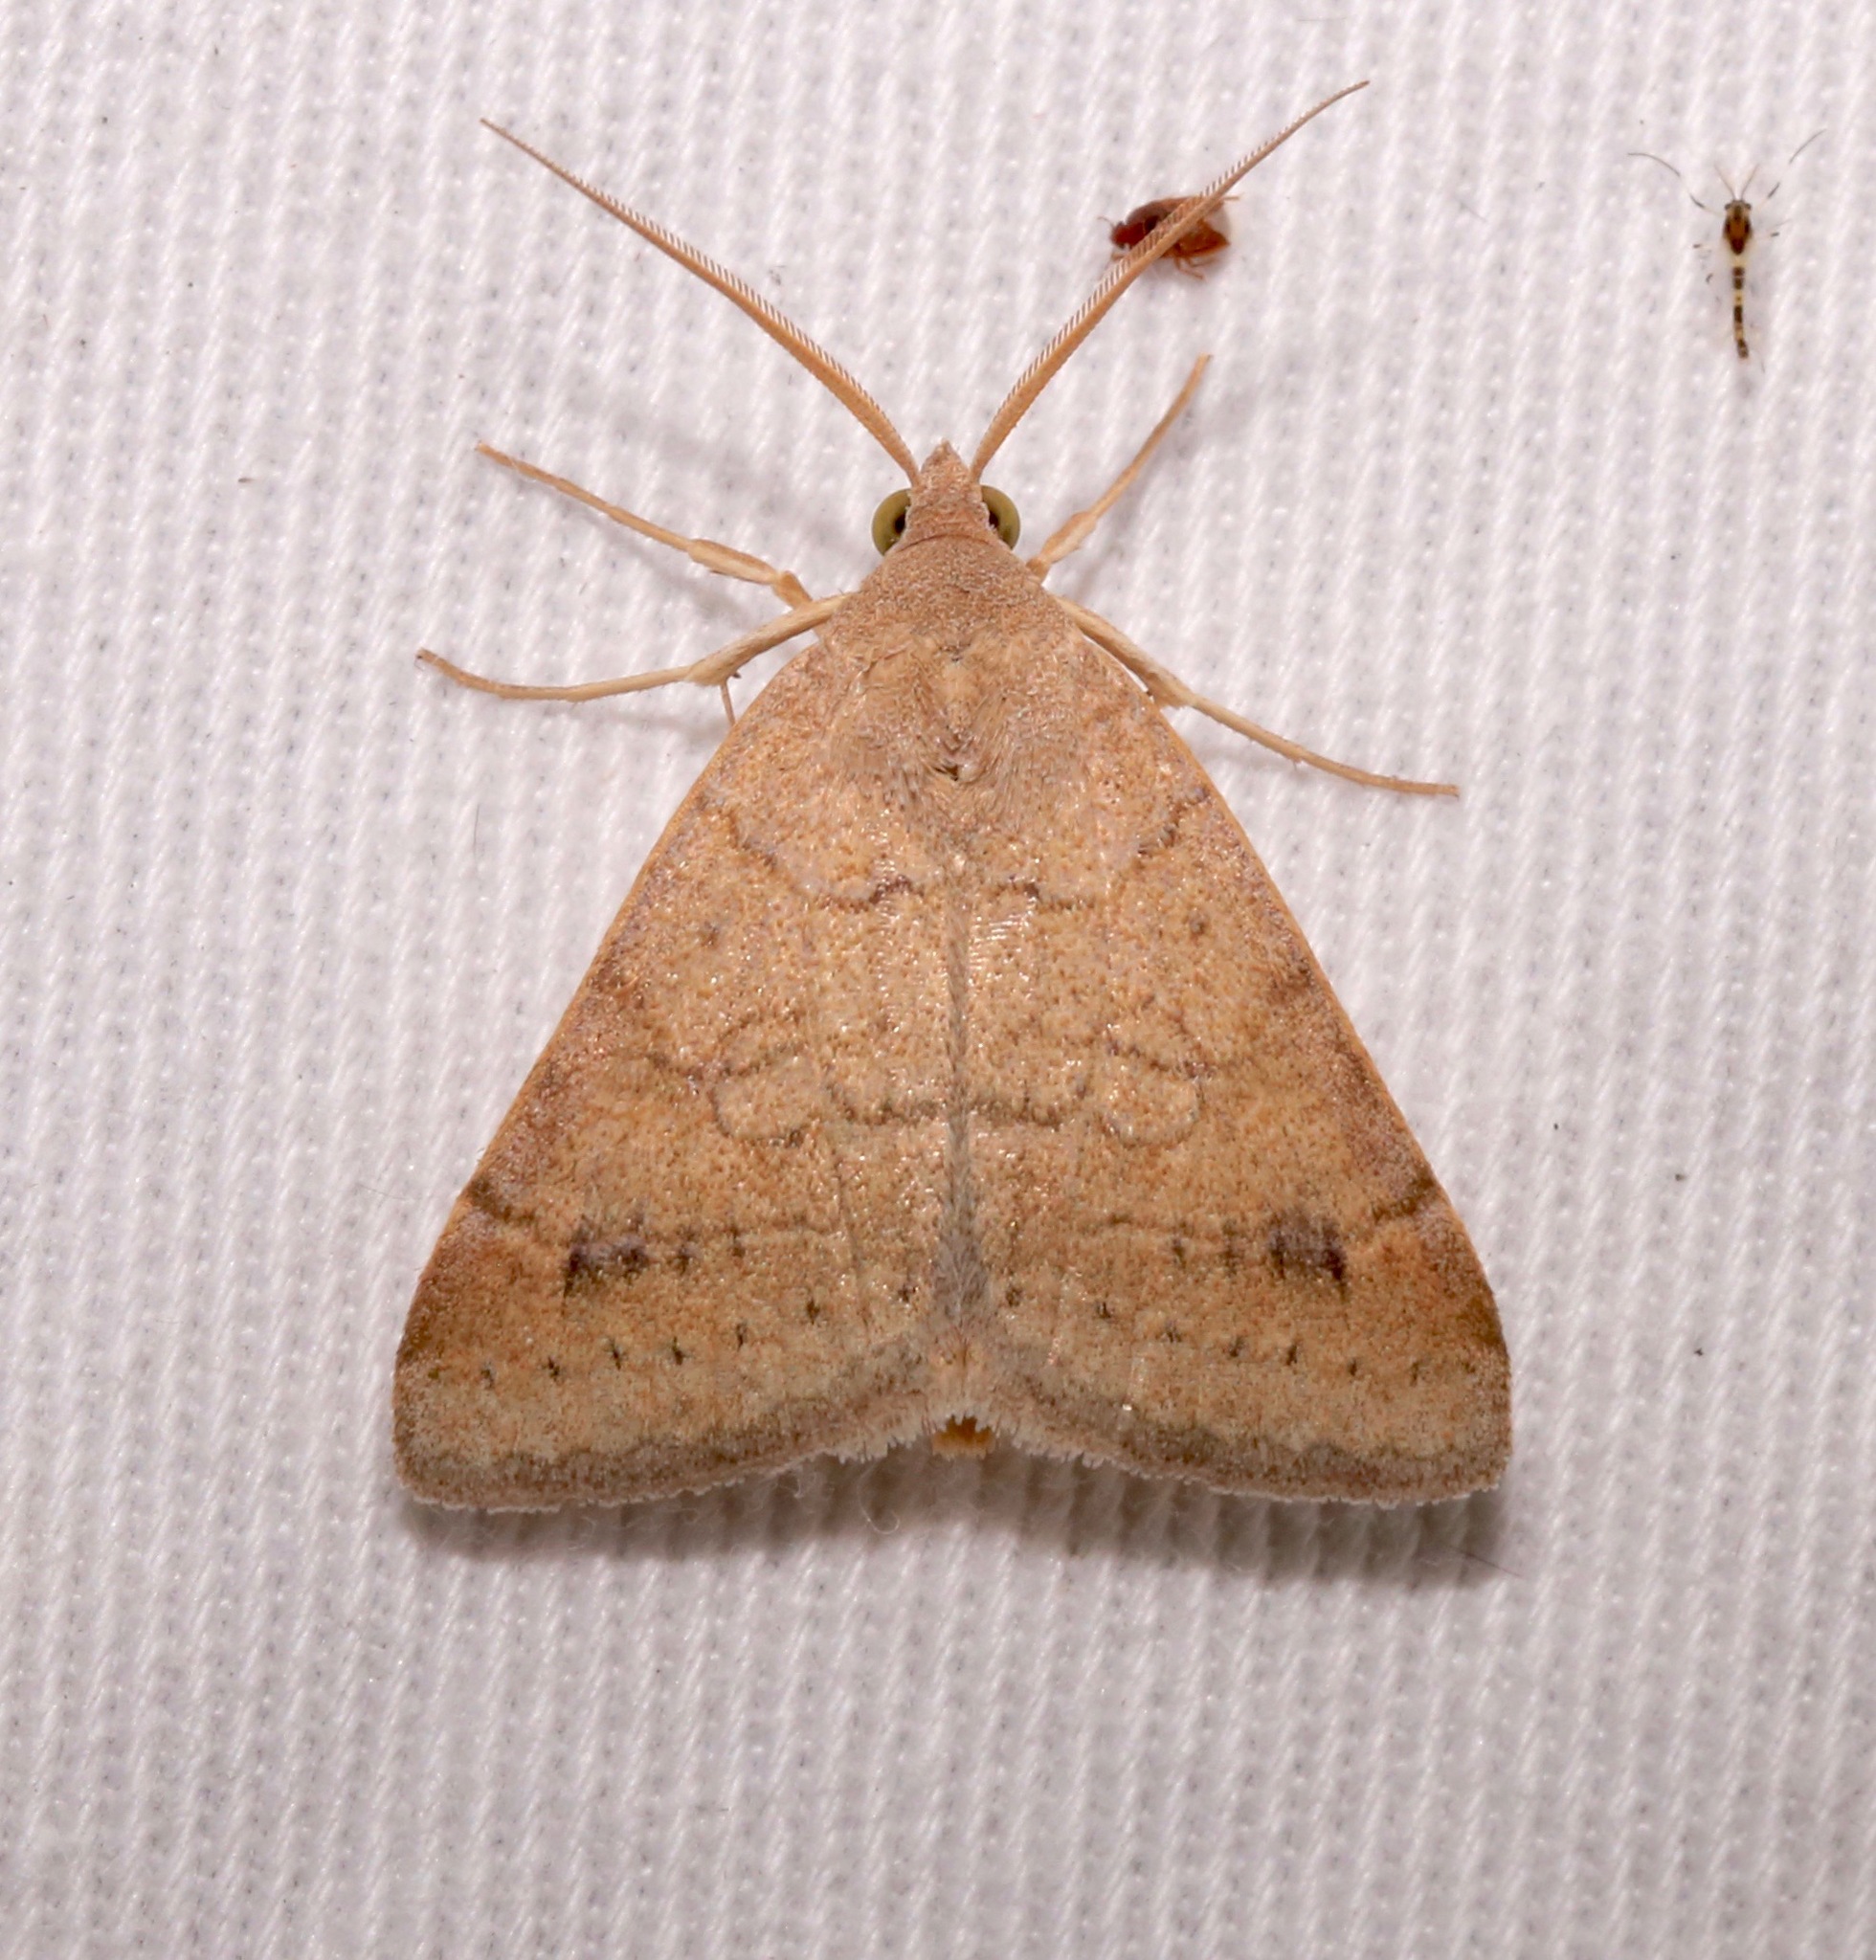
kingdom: Animalia
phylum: Arthropoda
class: Insecta
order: Lepidoptera
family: Erebidae
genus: Caenurgia
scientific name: Caenurgia chloropha
